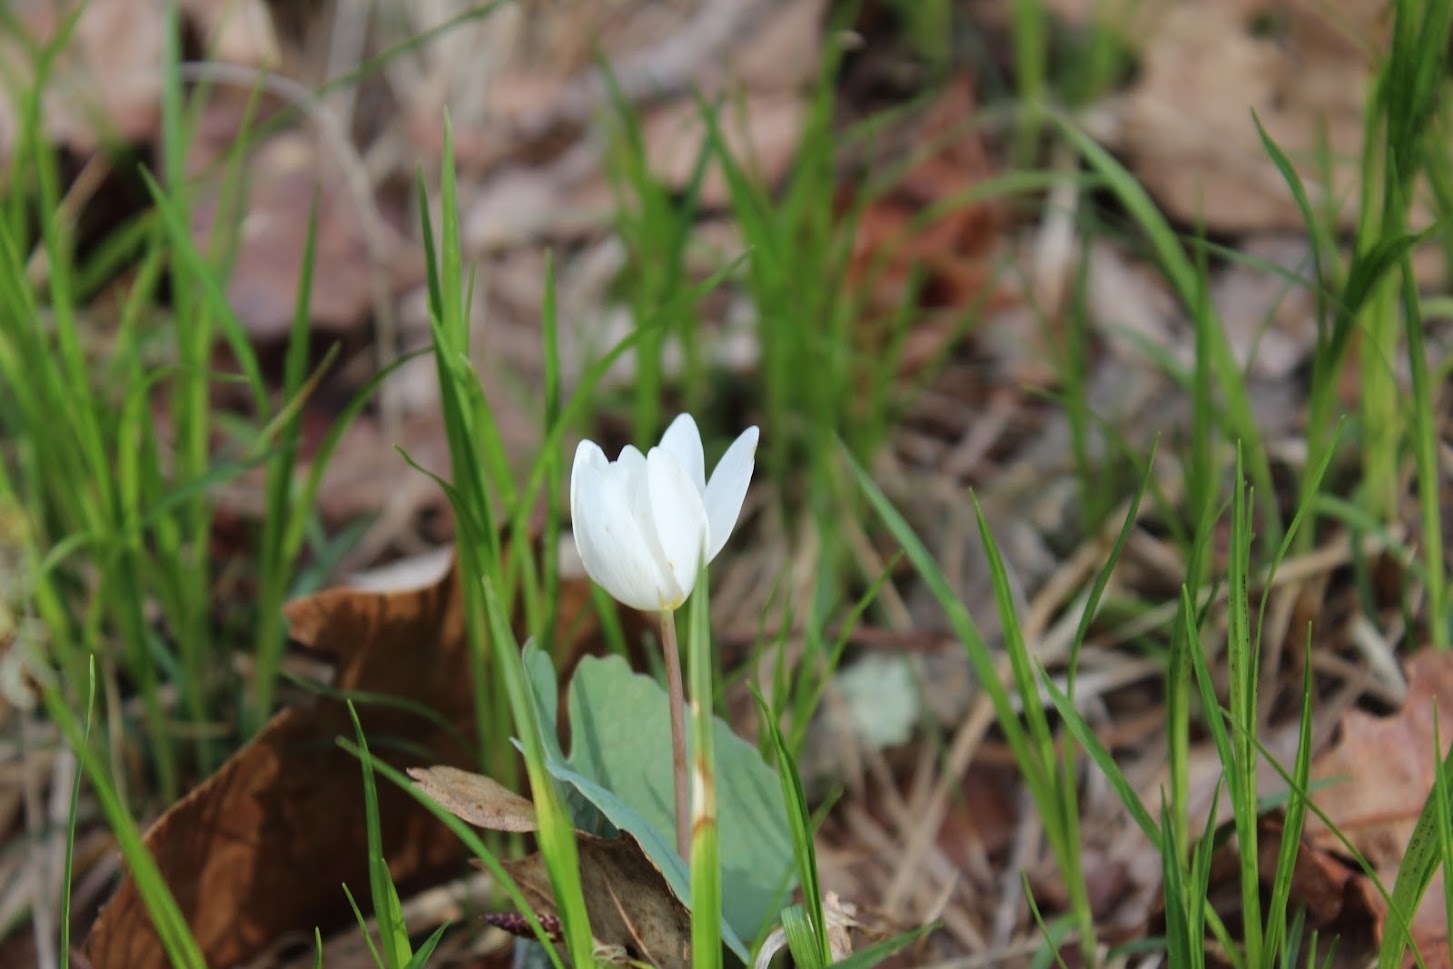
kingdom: Plantae
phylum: Tracheophyta
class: Magnoliopsida
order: Ranunculales
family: Papaveraceae
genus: Sanguinaria
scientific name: Sanguinaria canadensis
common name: Bloodroot
